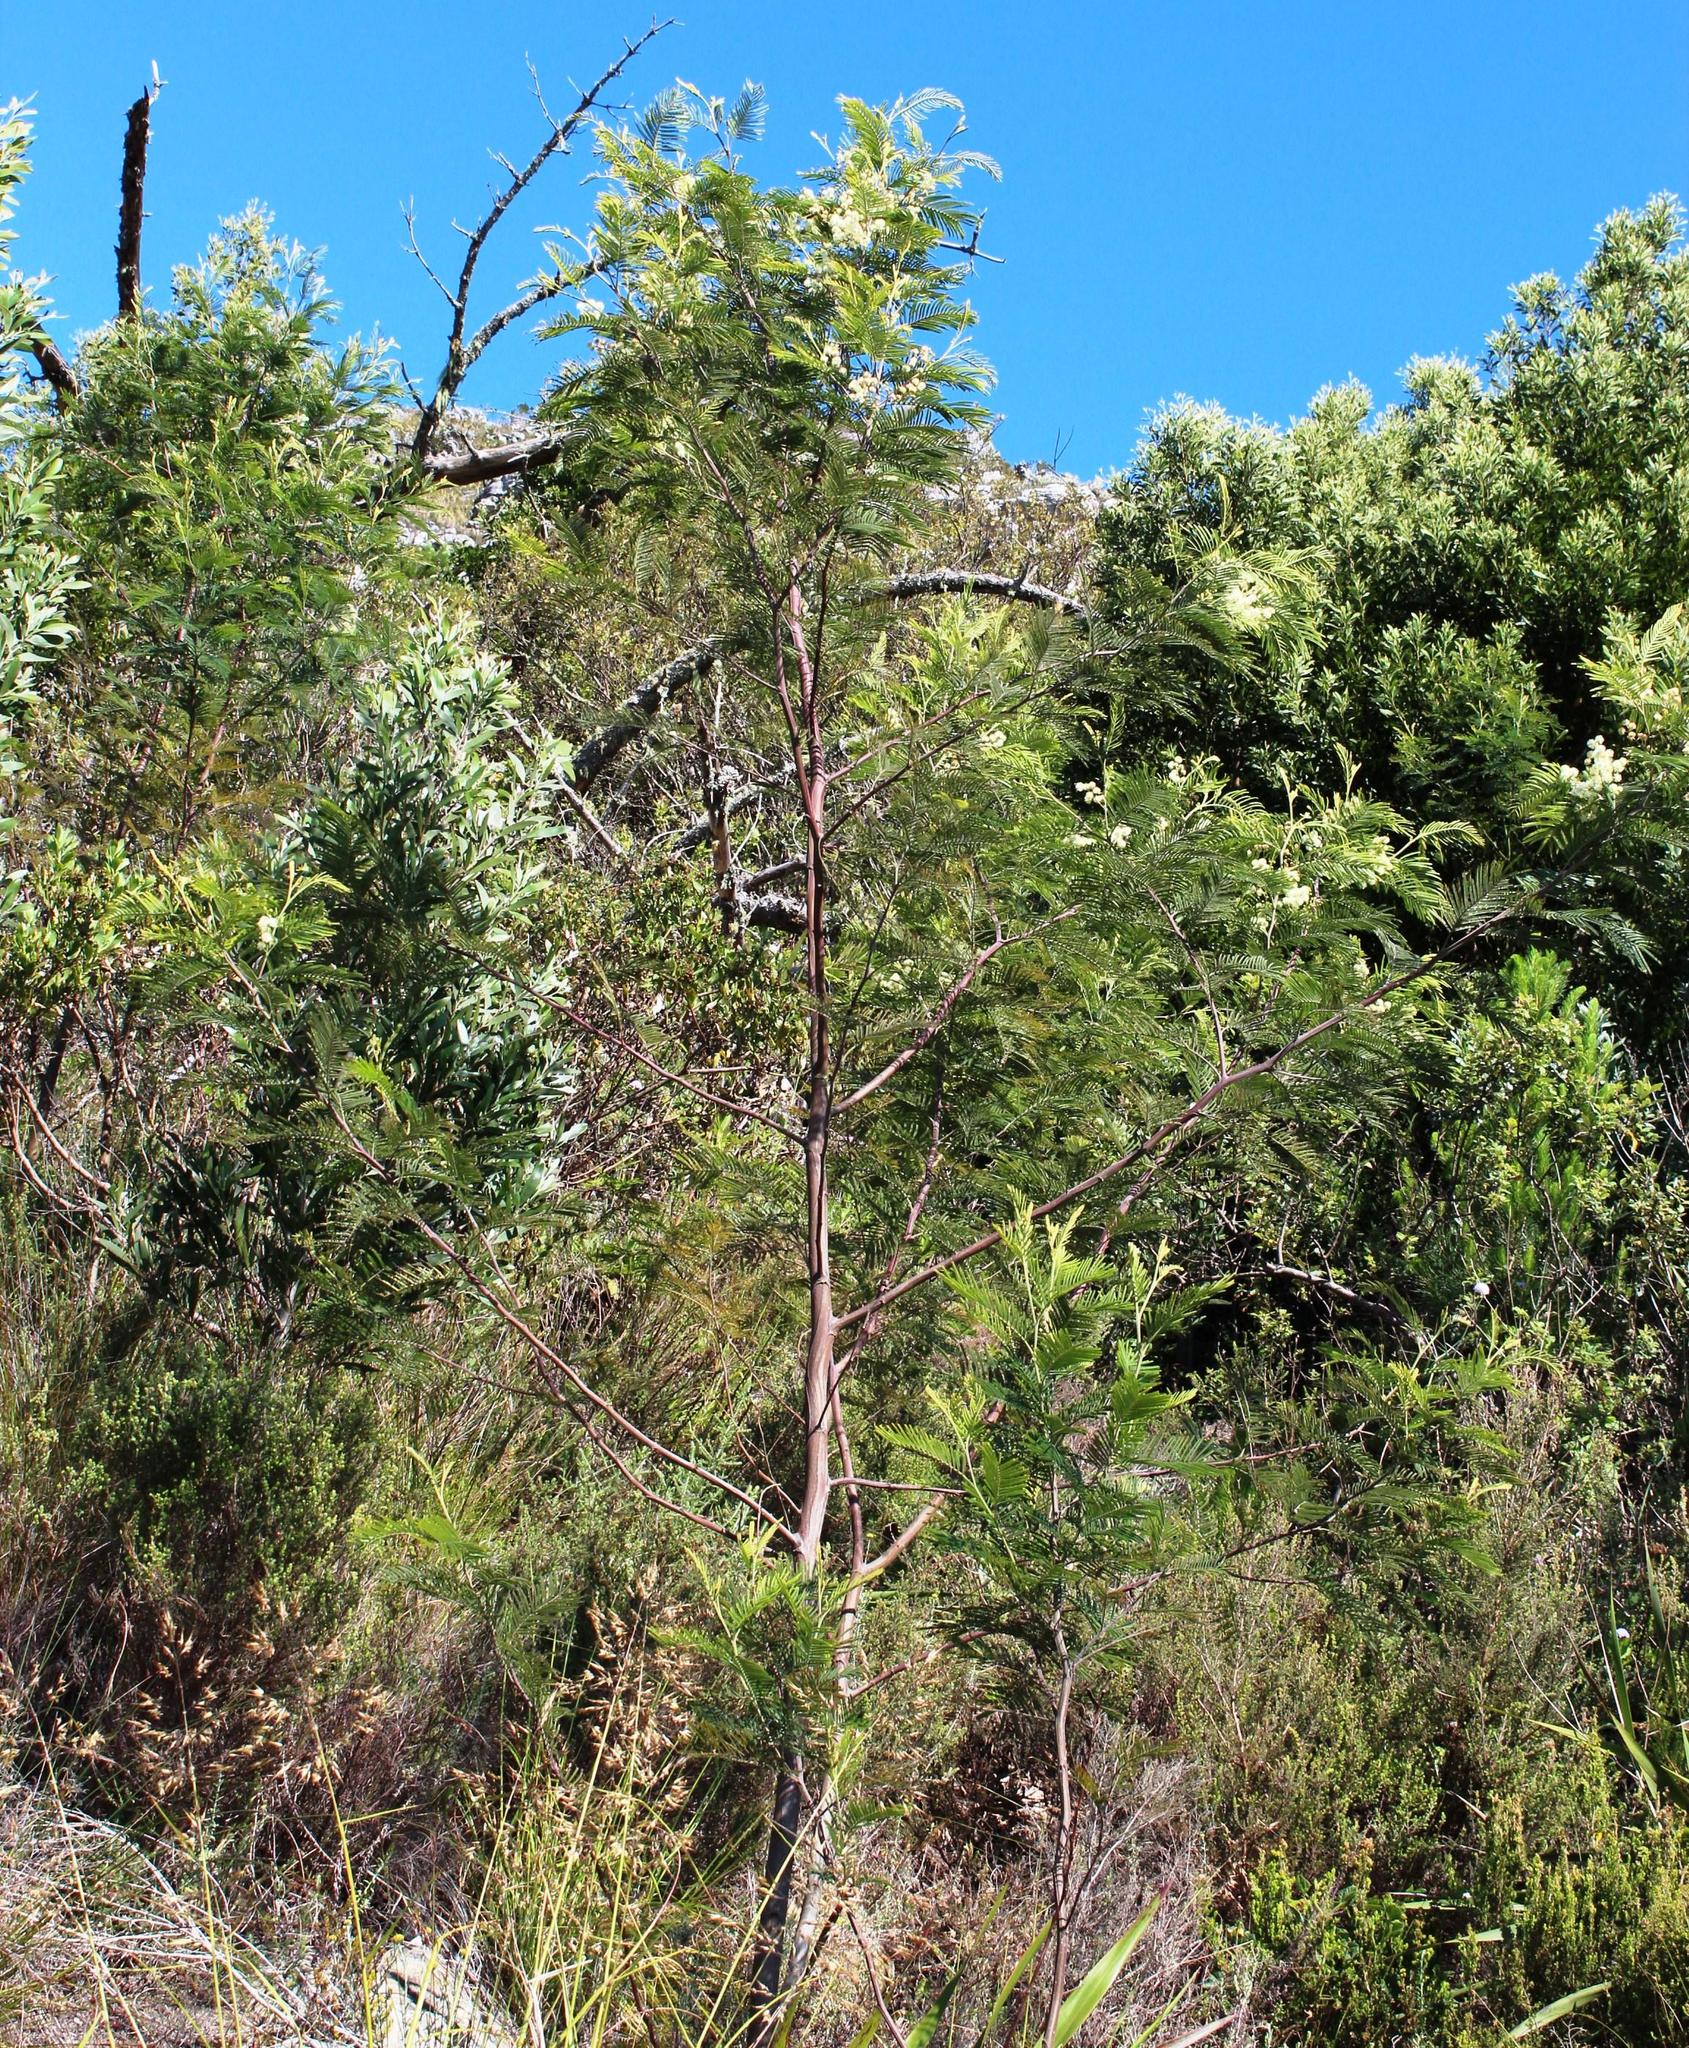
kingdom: Plantae
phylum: Tracheophyta
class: Magnoliopsida
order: Fabales
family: Fabaceae
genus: Acacia
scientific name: Acacia mearnsii
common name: Black wattle
